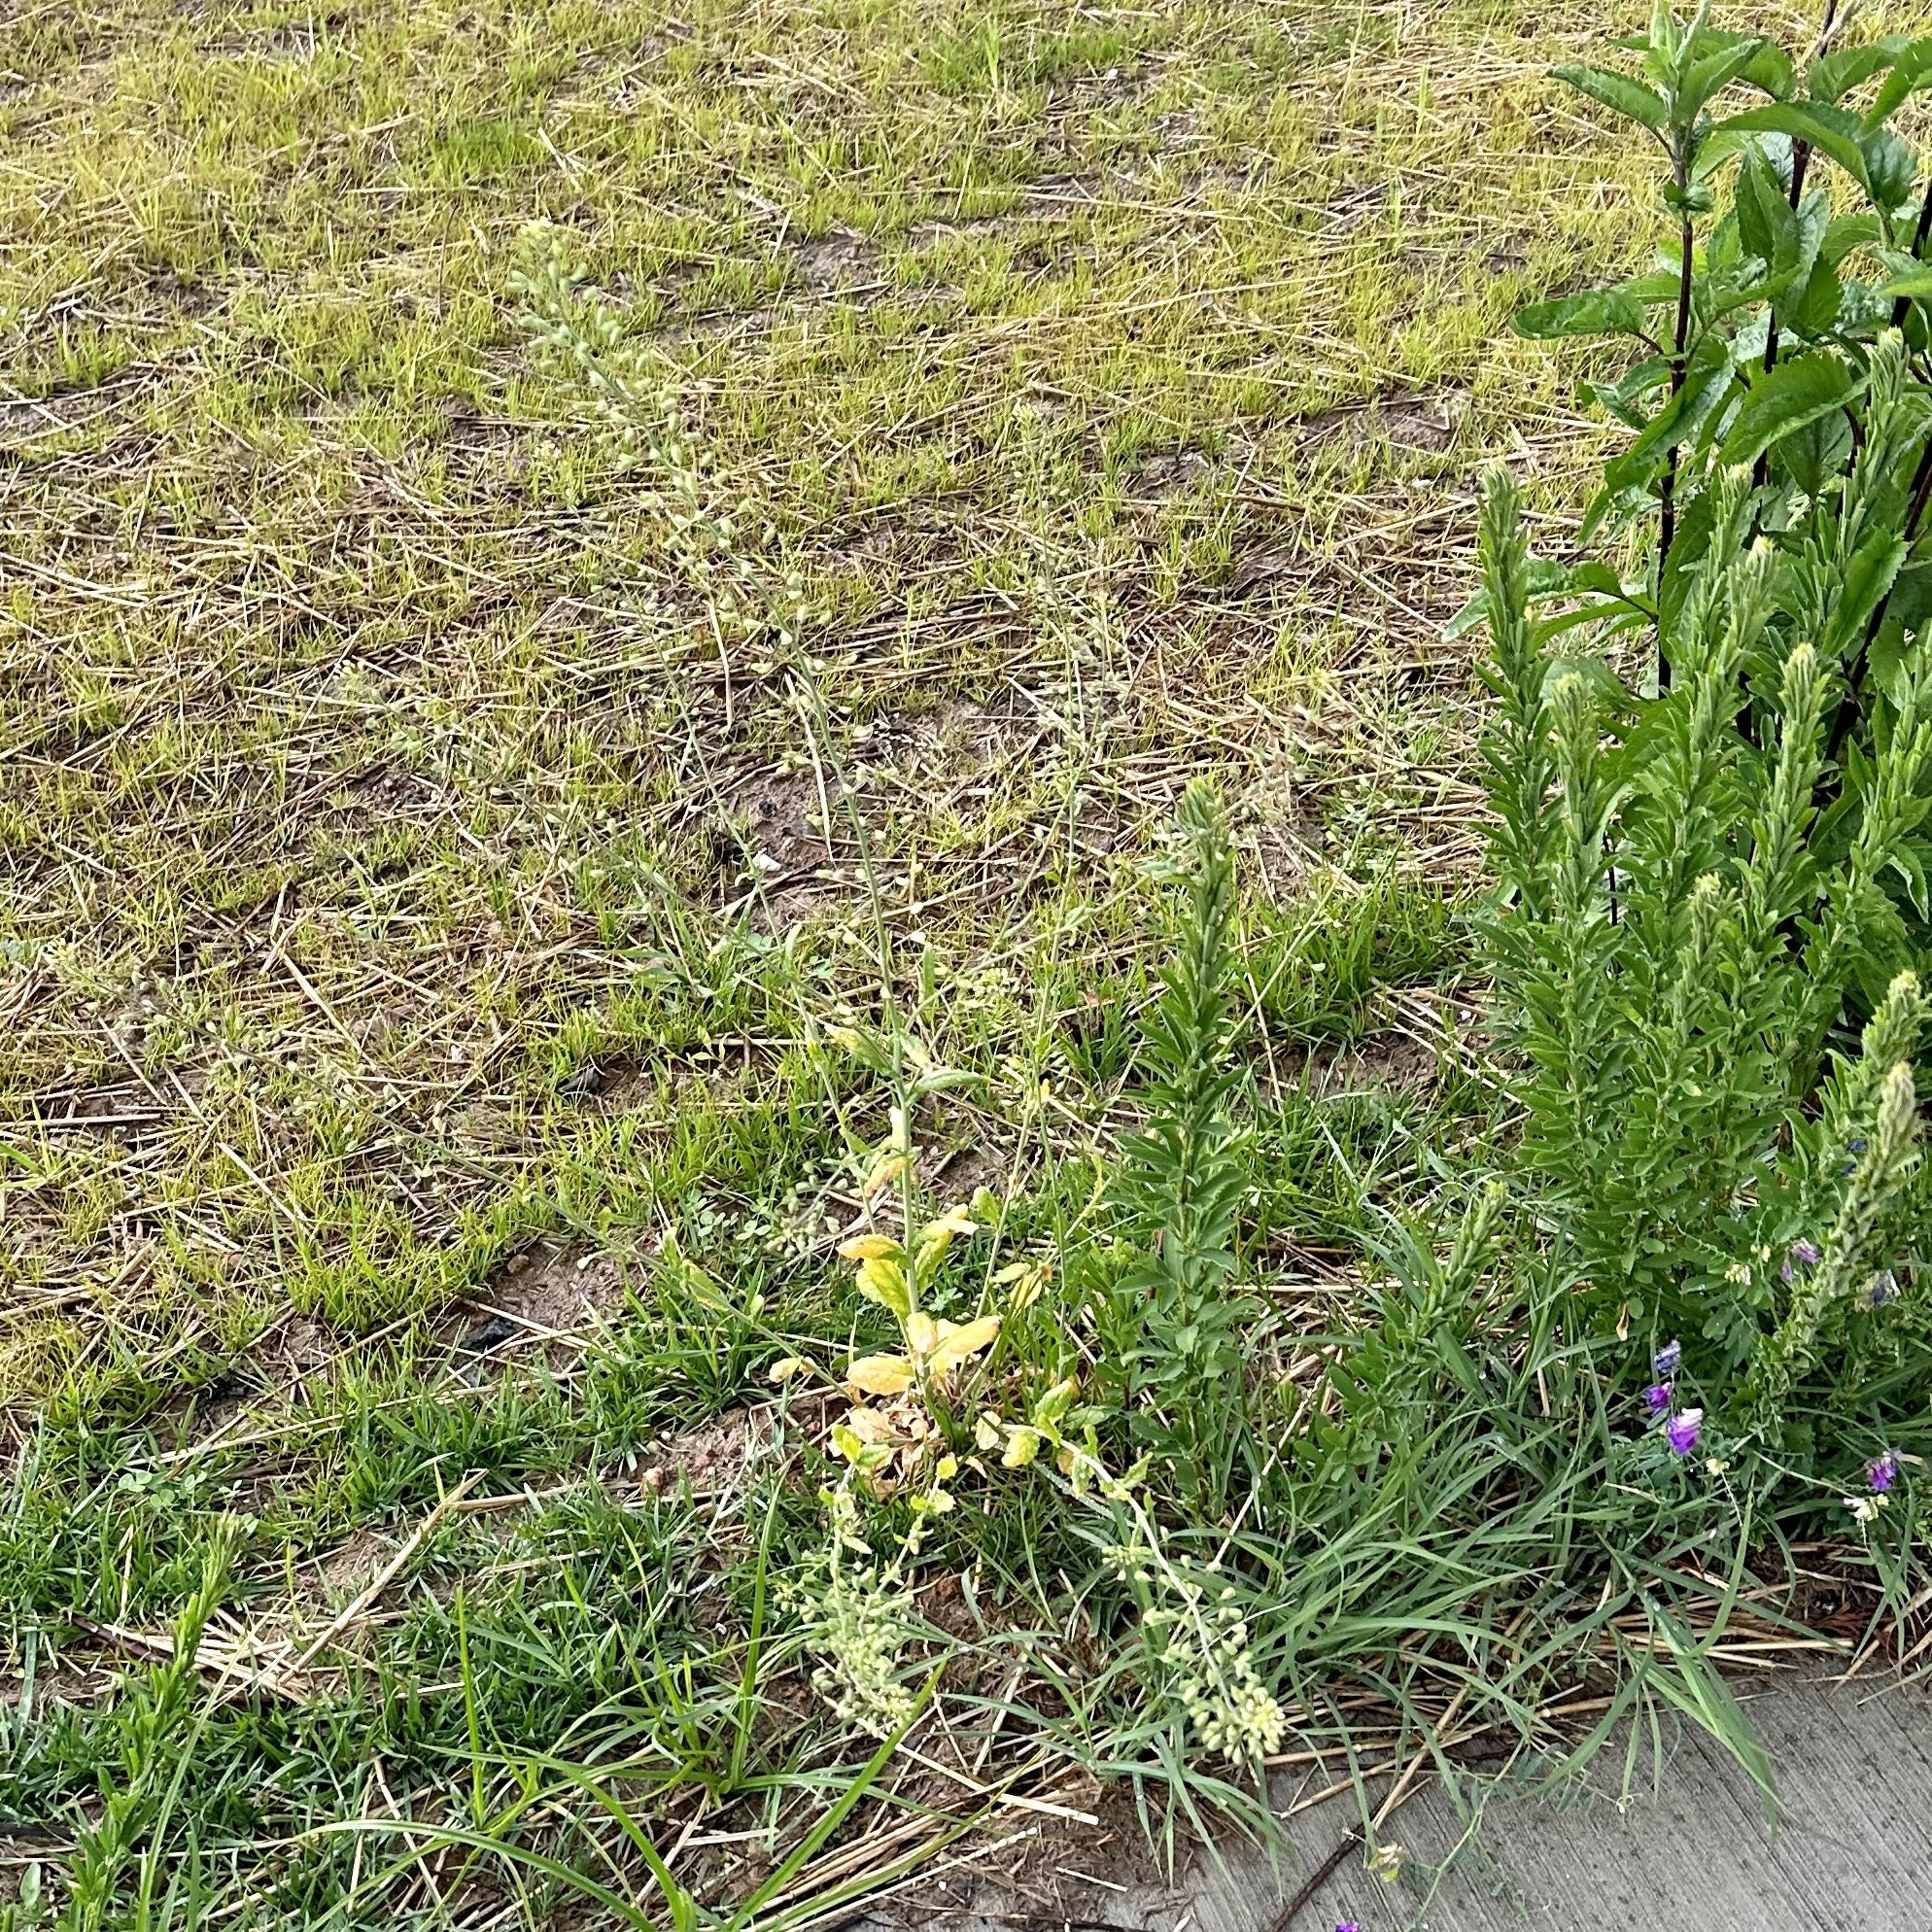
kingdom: Plantae
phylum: Tracheophyta
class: Magnoliopsida
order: Brassicales
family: Brassicaceae
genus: Mummenhoffia
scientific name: Mummenhoffia alliacea
